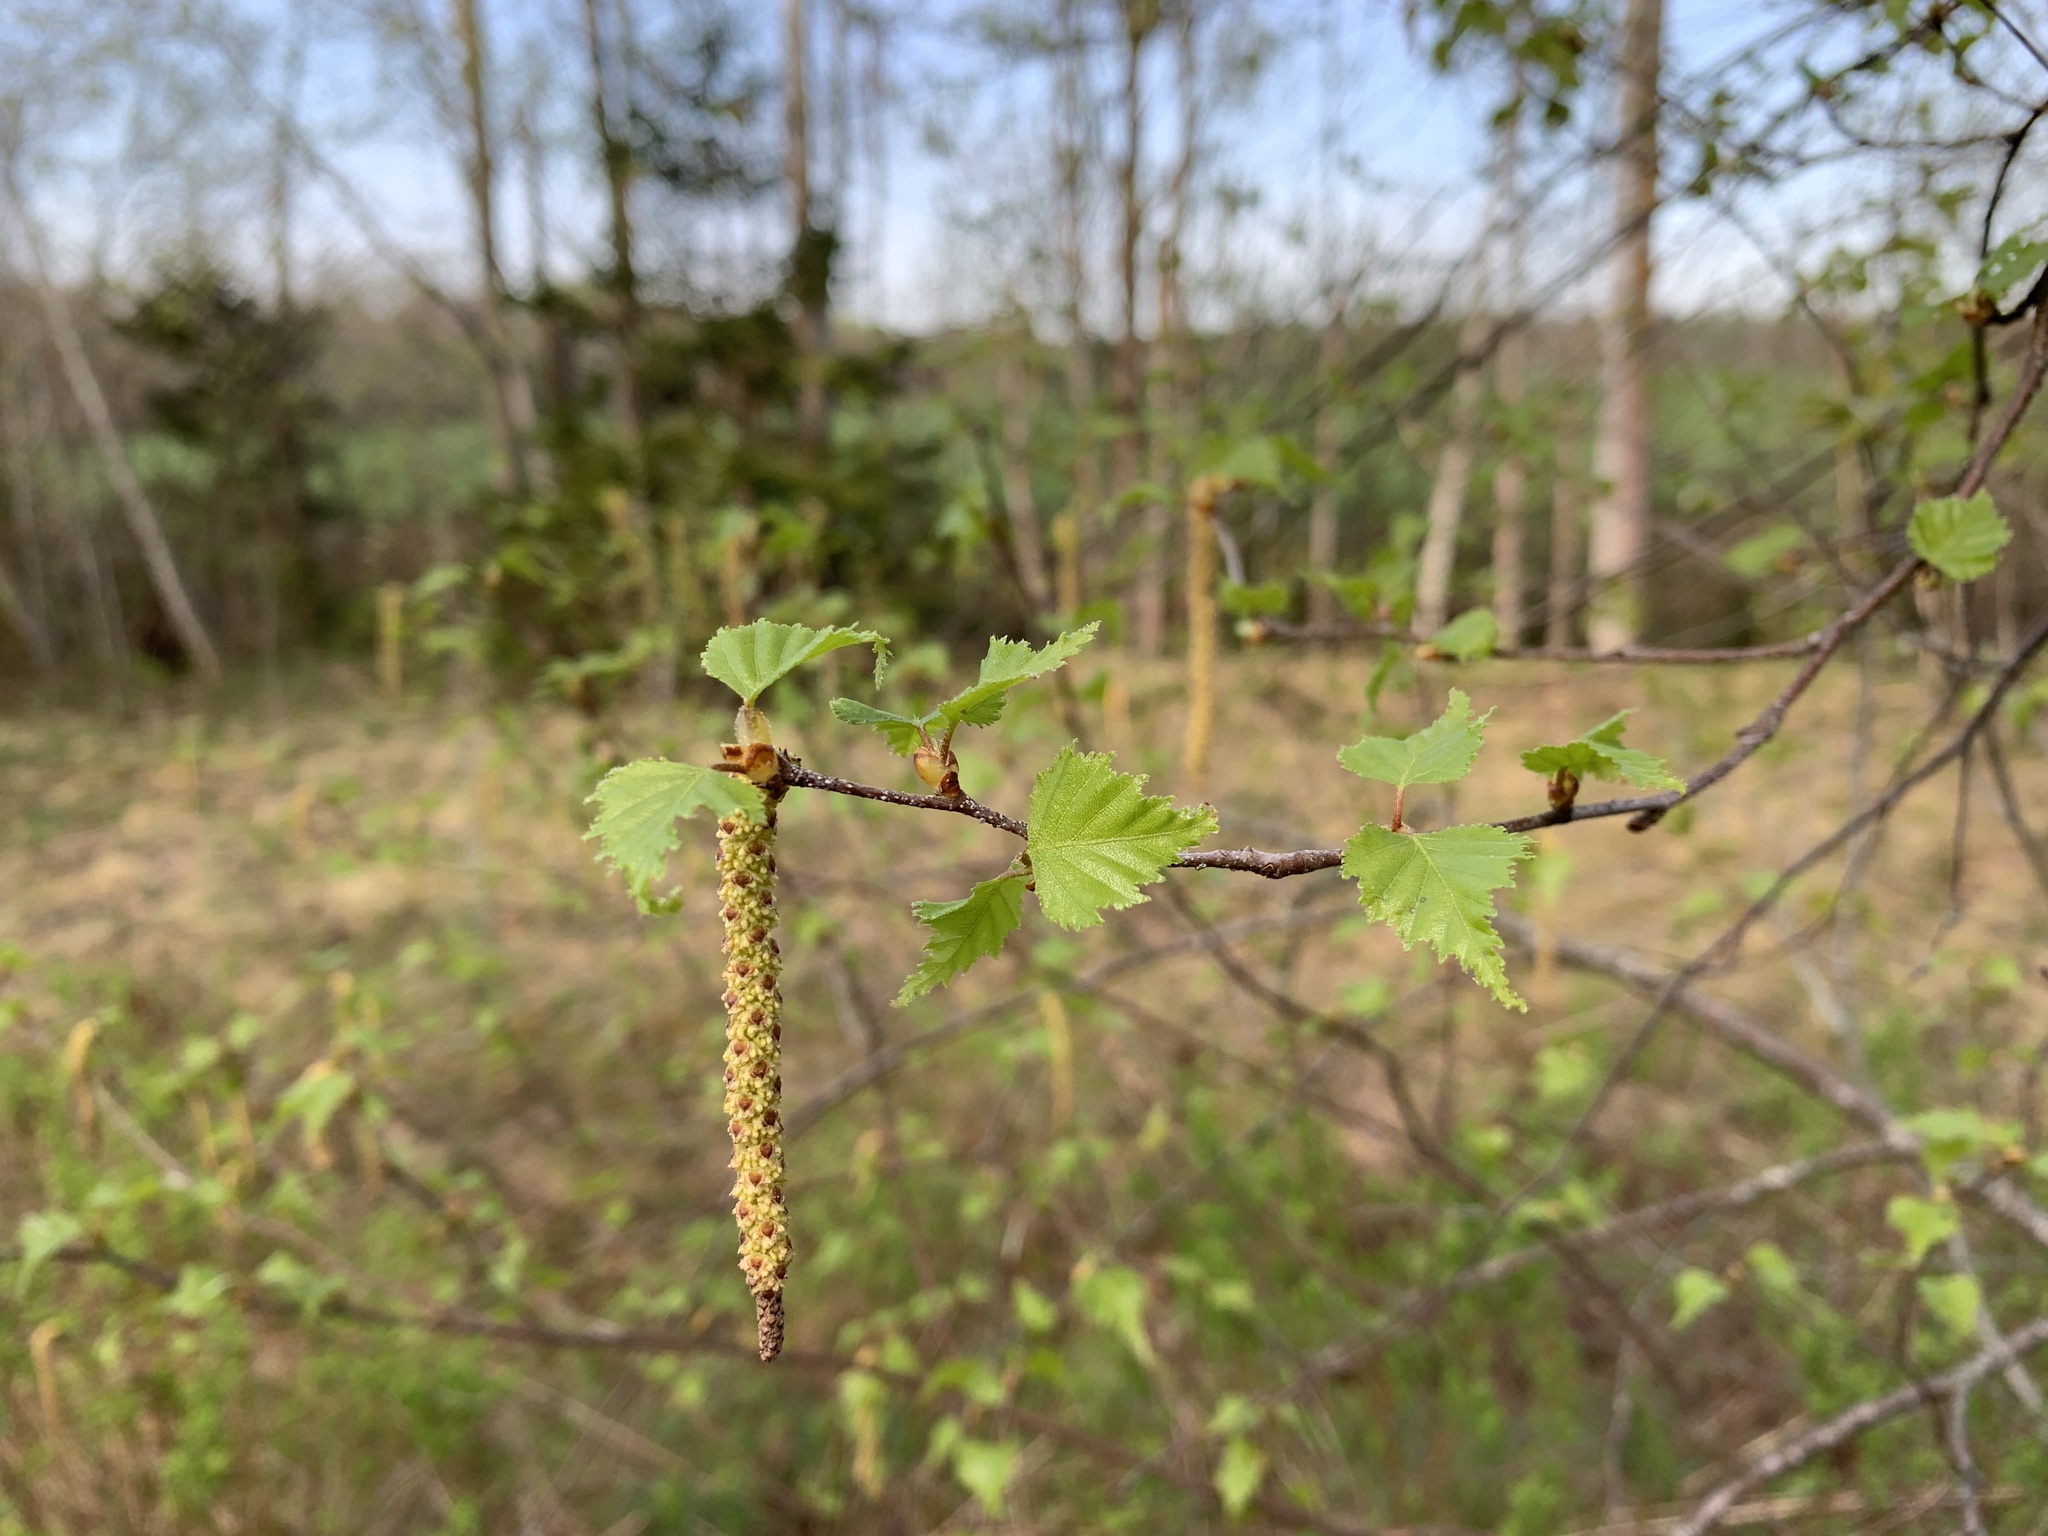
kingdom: Plantae
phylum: Tracheophyta
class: Magnoliopsida
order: Fagales
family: Betulaceae
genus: Betula
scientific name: Betula populifolia
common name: Fire birch
